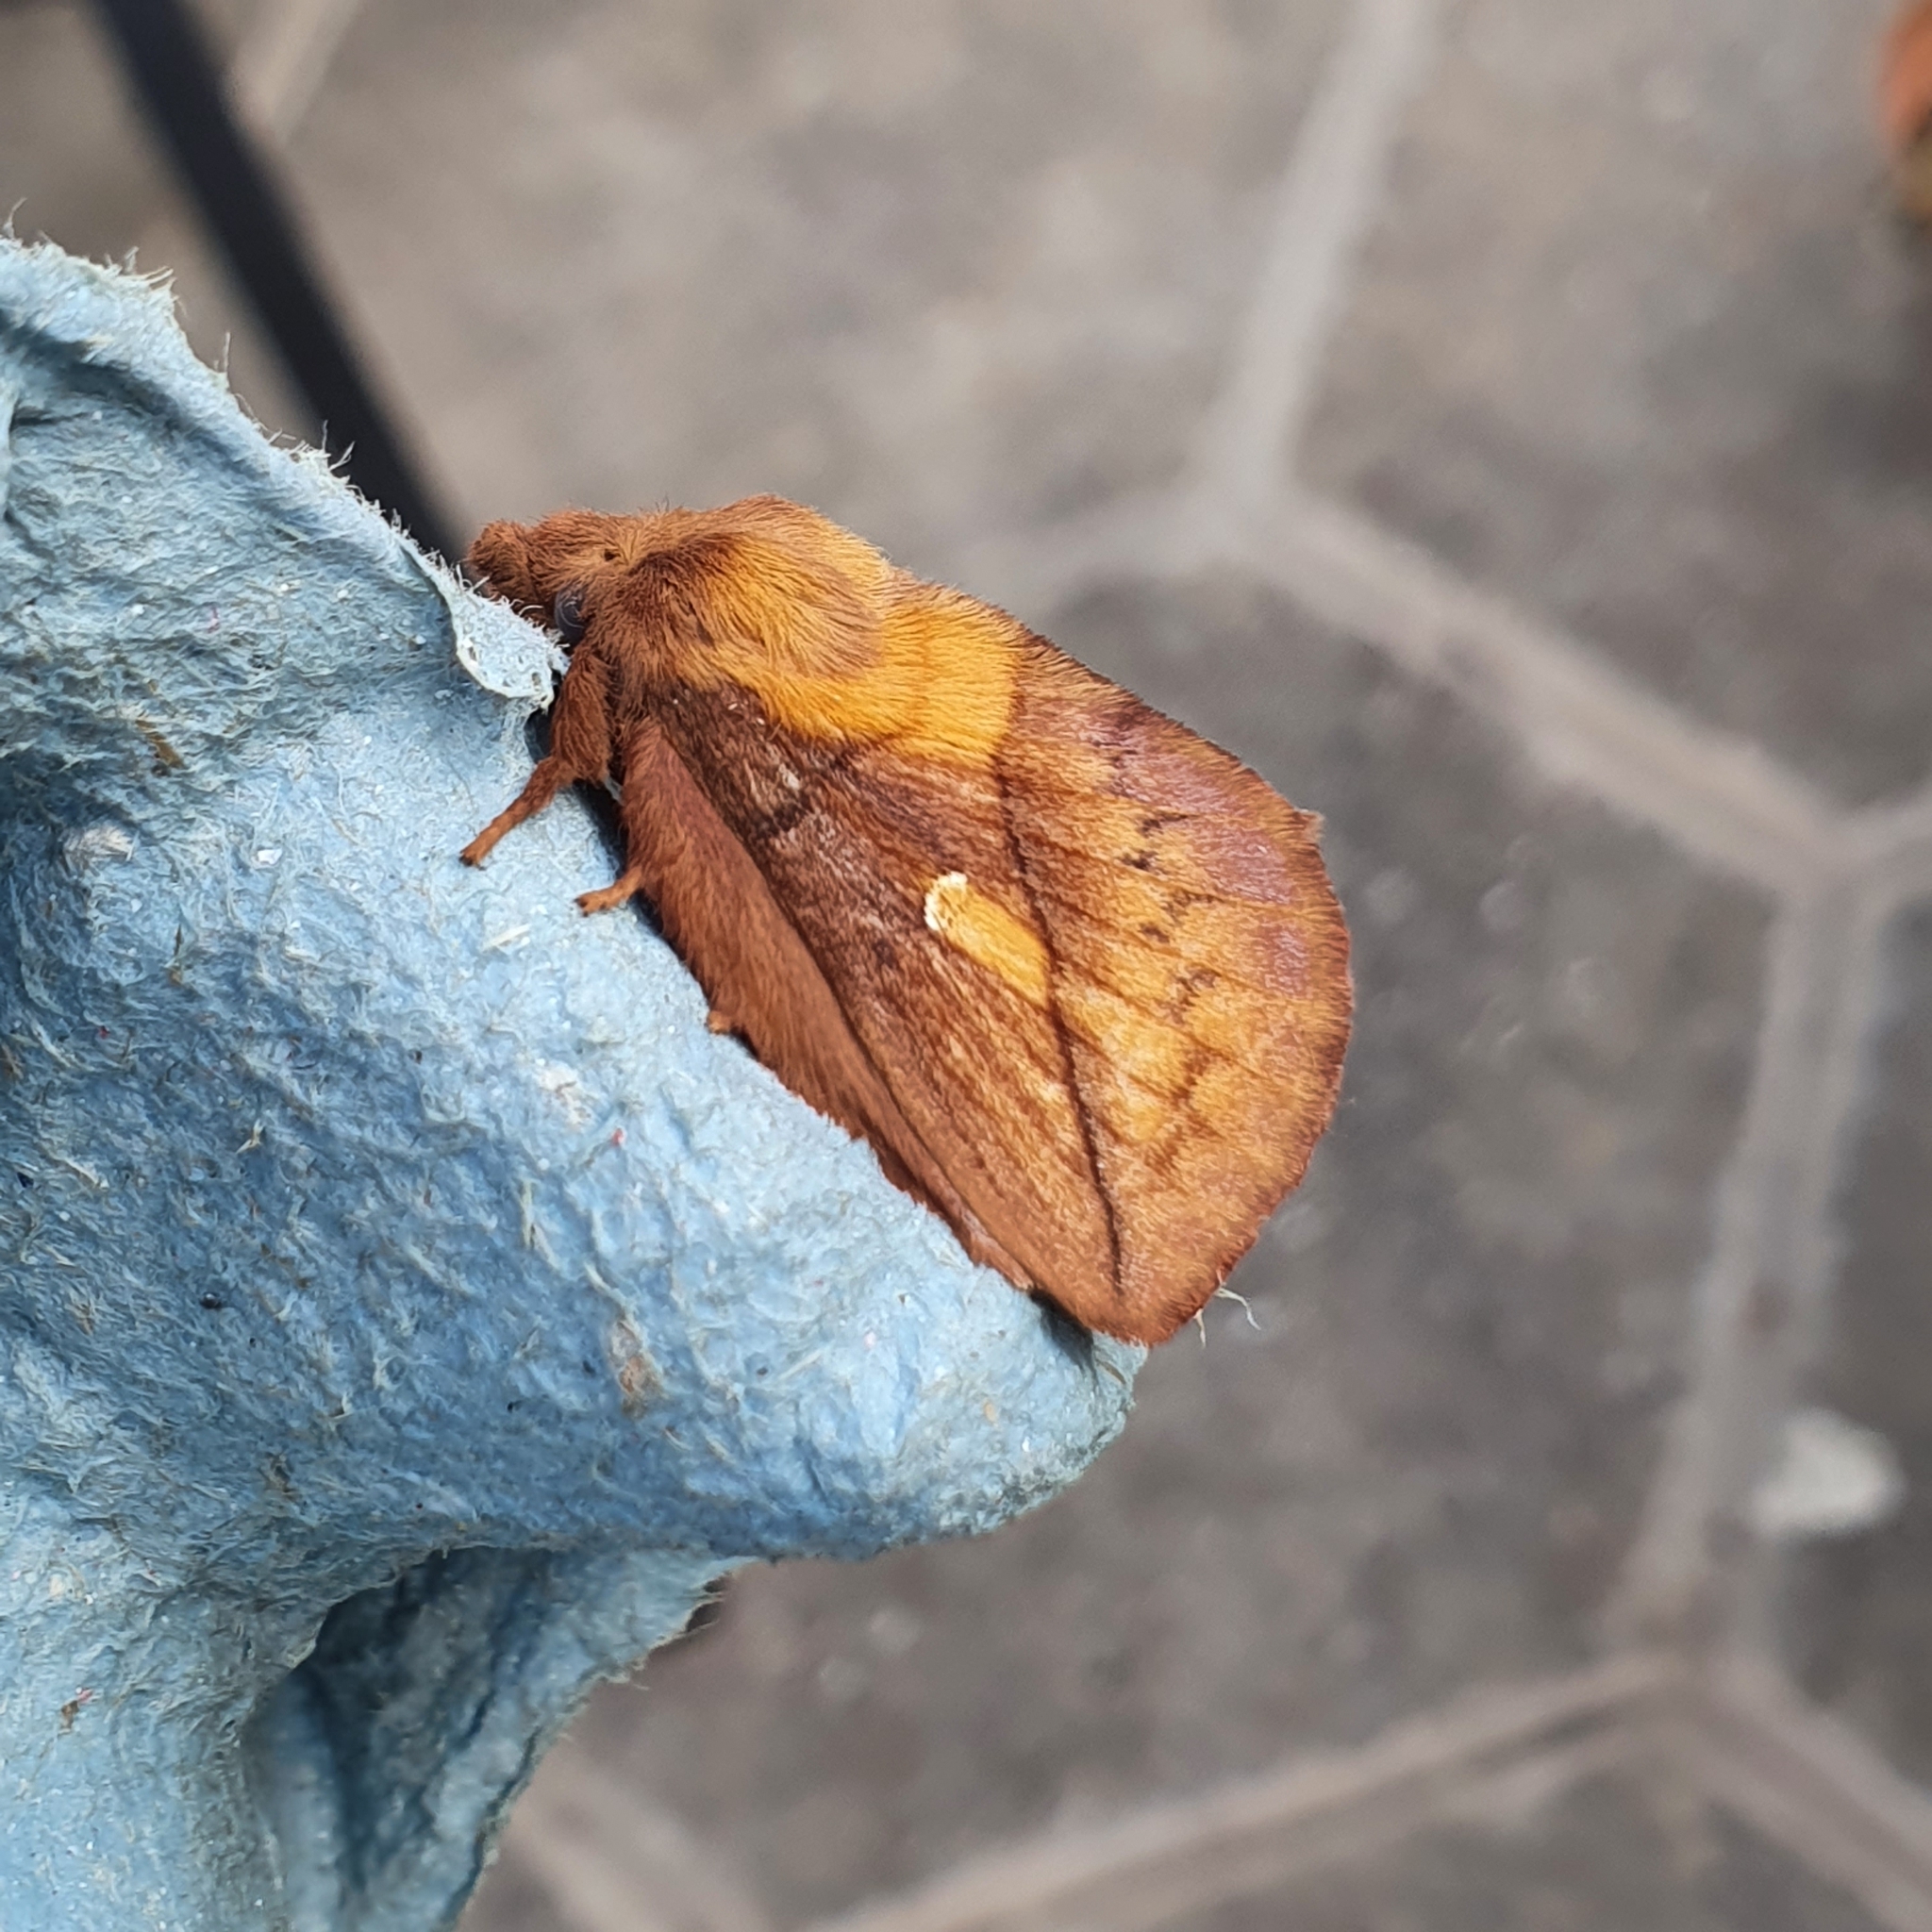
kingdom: Animalia
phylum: Arthropoda
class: Insecta
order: Lepidoptera
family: Lasiocampidae
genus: Euthrix
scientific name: Euthrix potatoria
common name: Drinker
